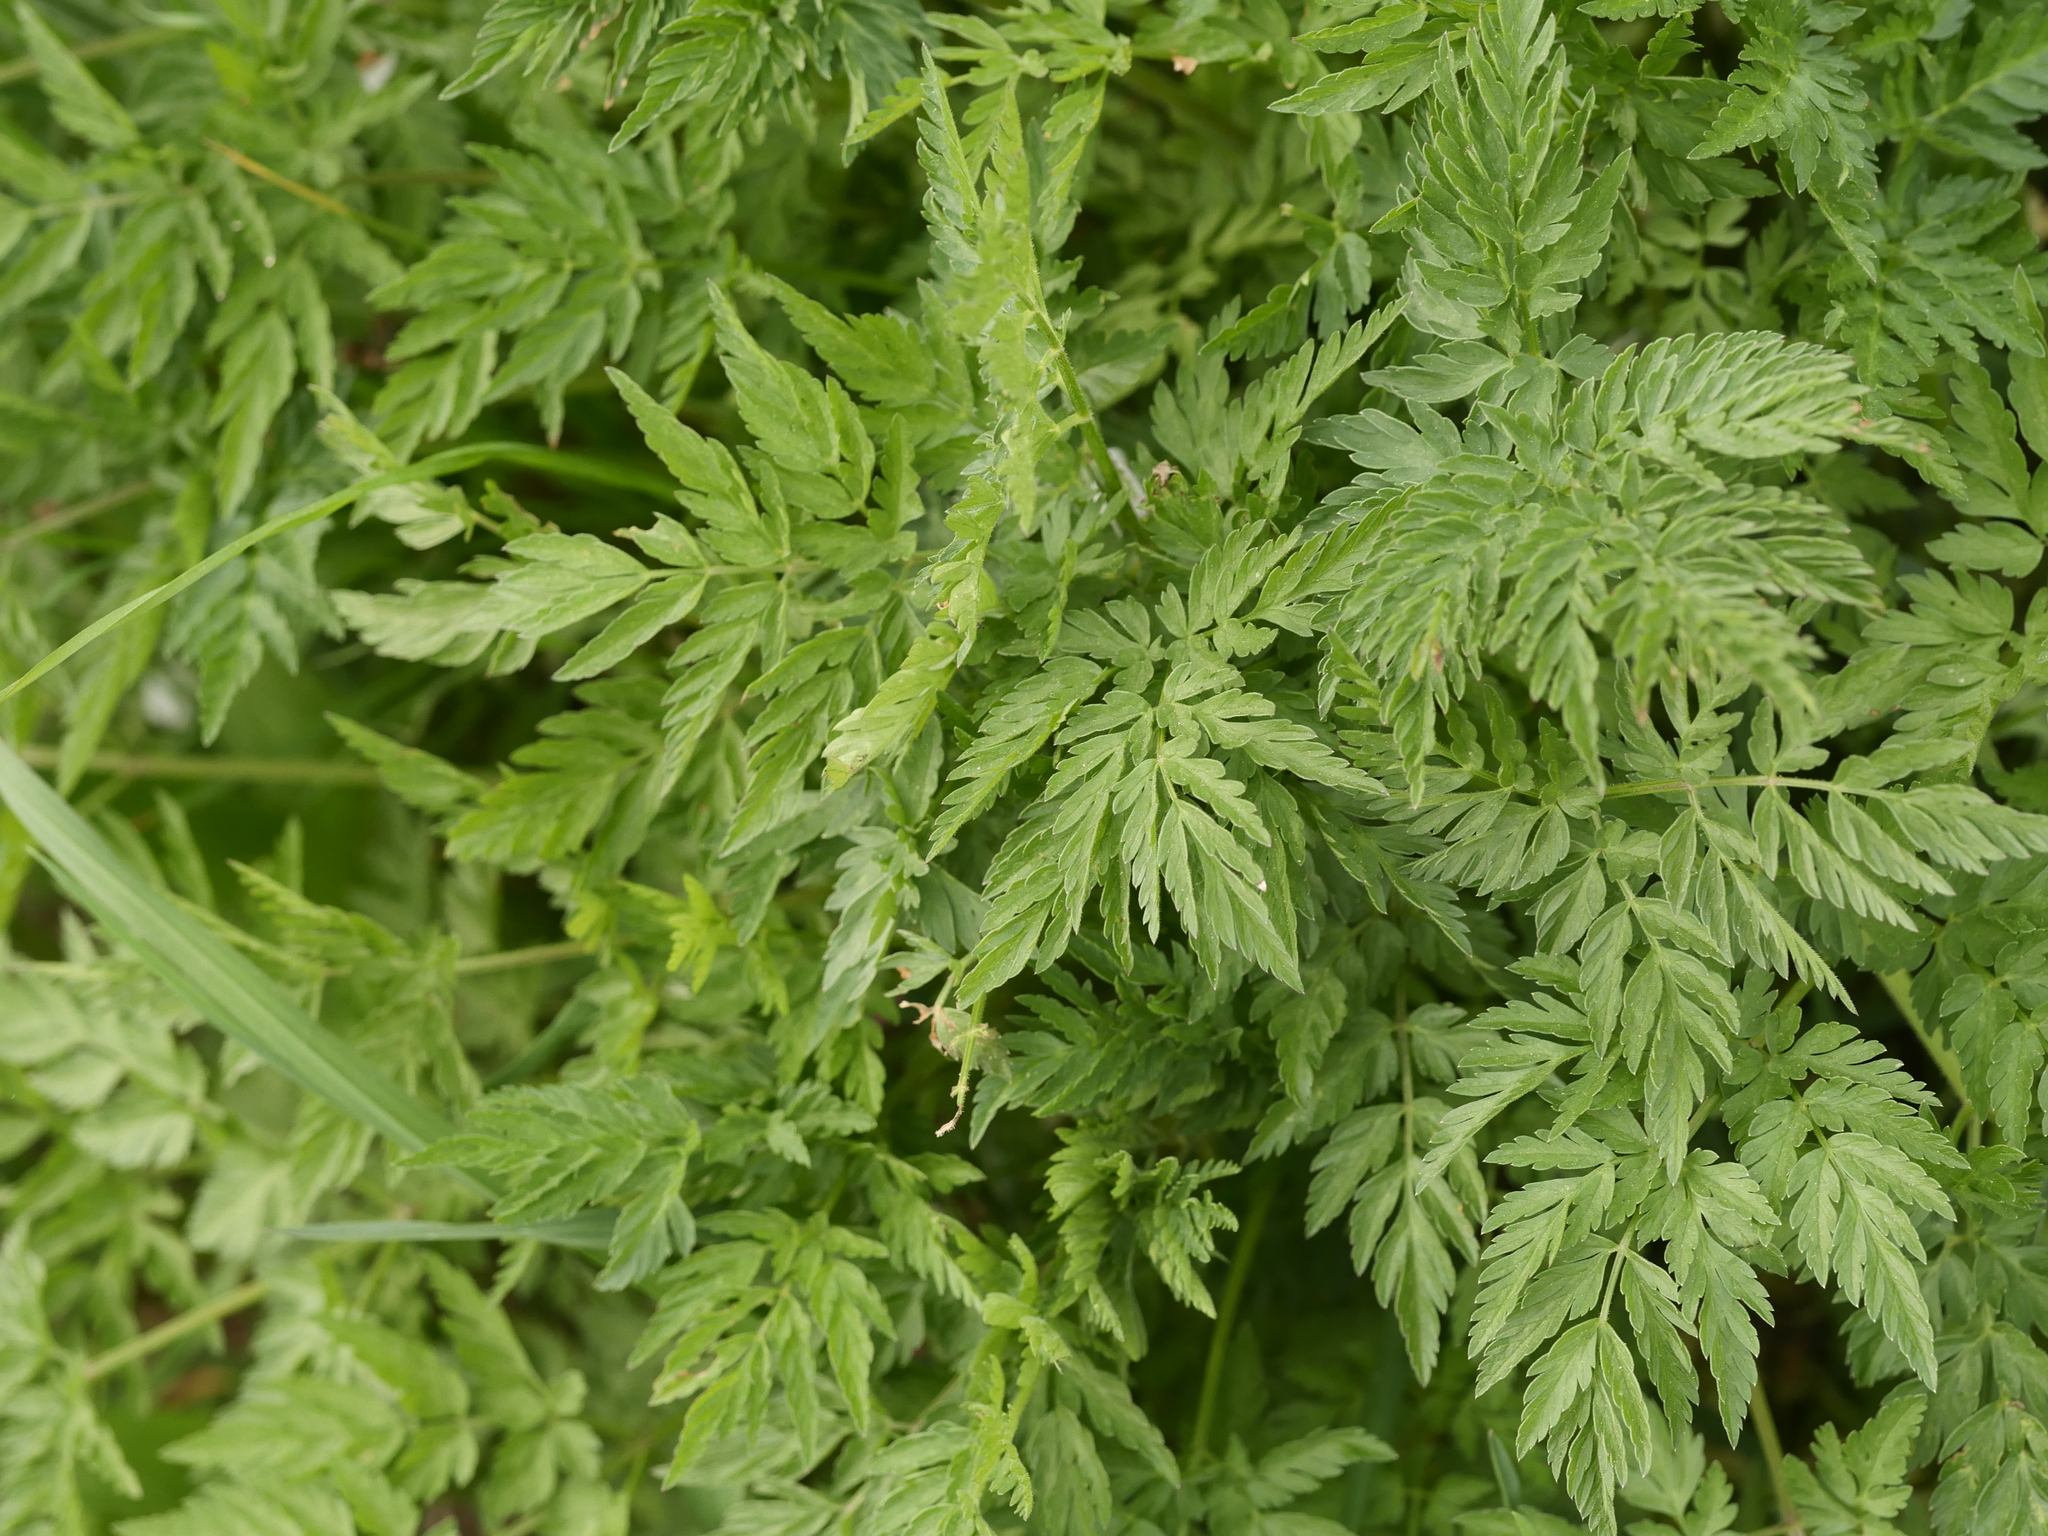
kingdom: Plantae
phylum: Tracheophyta
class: Magnoliopsida
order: Apiales
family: Apiaceae
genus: Anthriscus
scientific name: Anthriscus sylvestris
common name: Cow parsley
